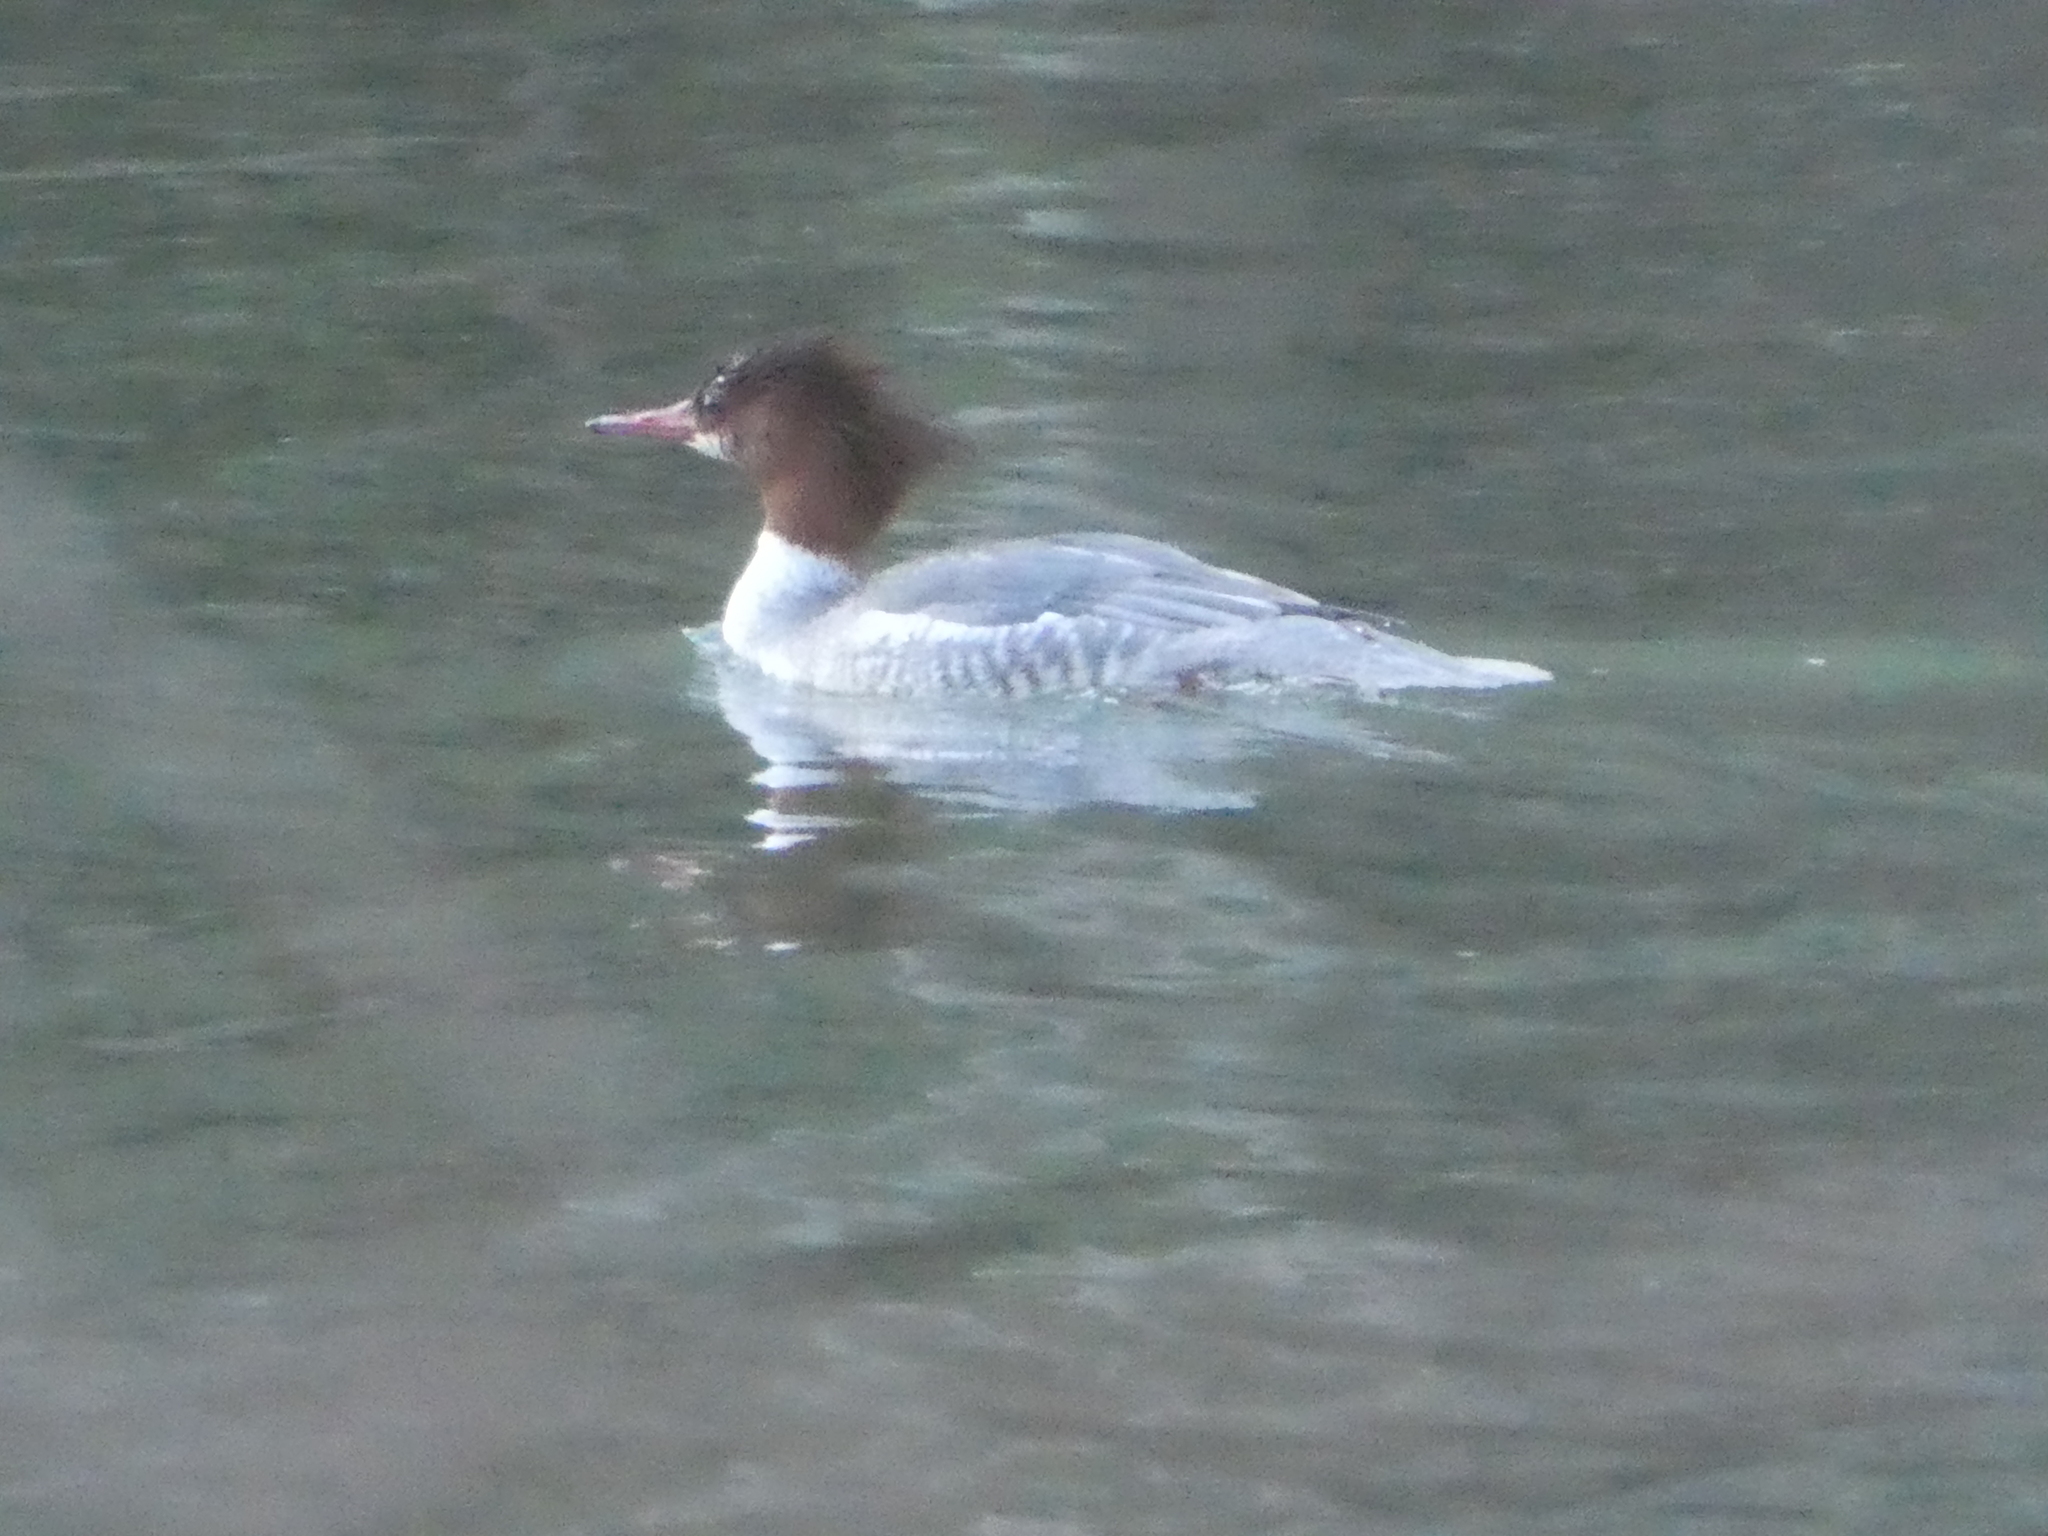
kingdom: Animalia
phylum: Chordata
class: Aves
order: Anseriformes
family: Anatidae
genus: Mergus
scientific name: Mergus merganser
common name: Common merganser
